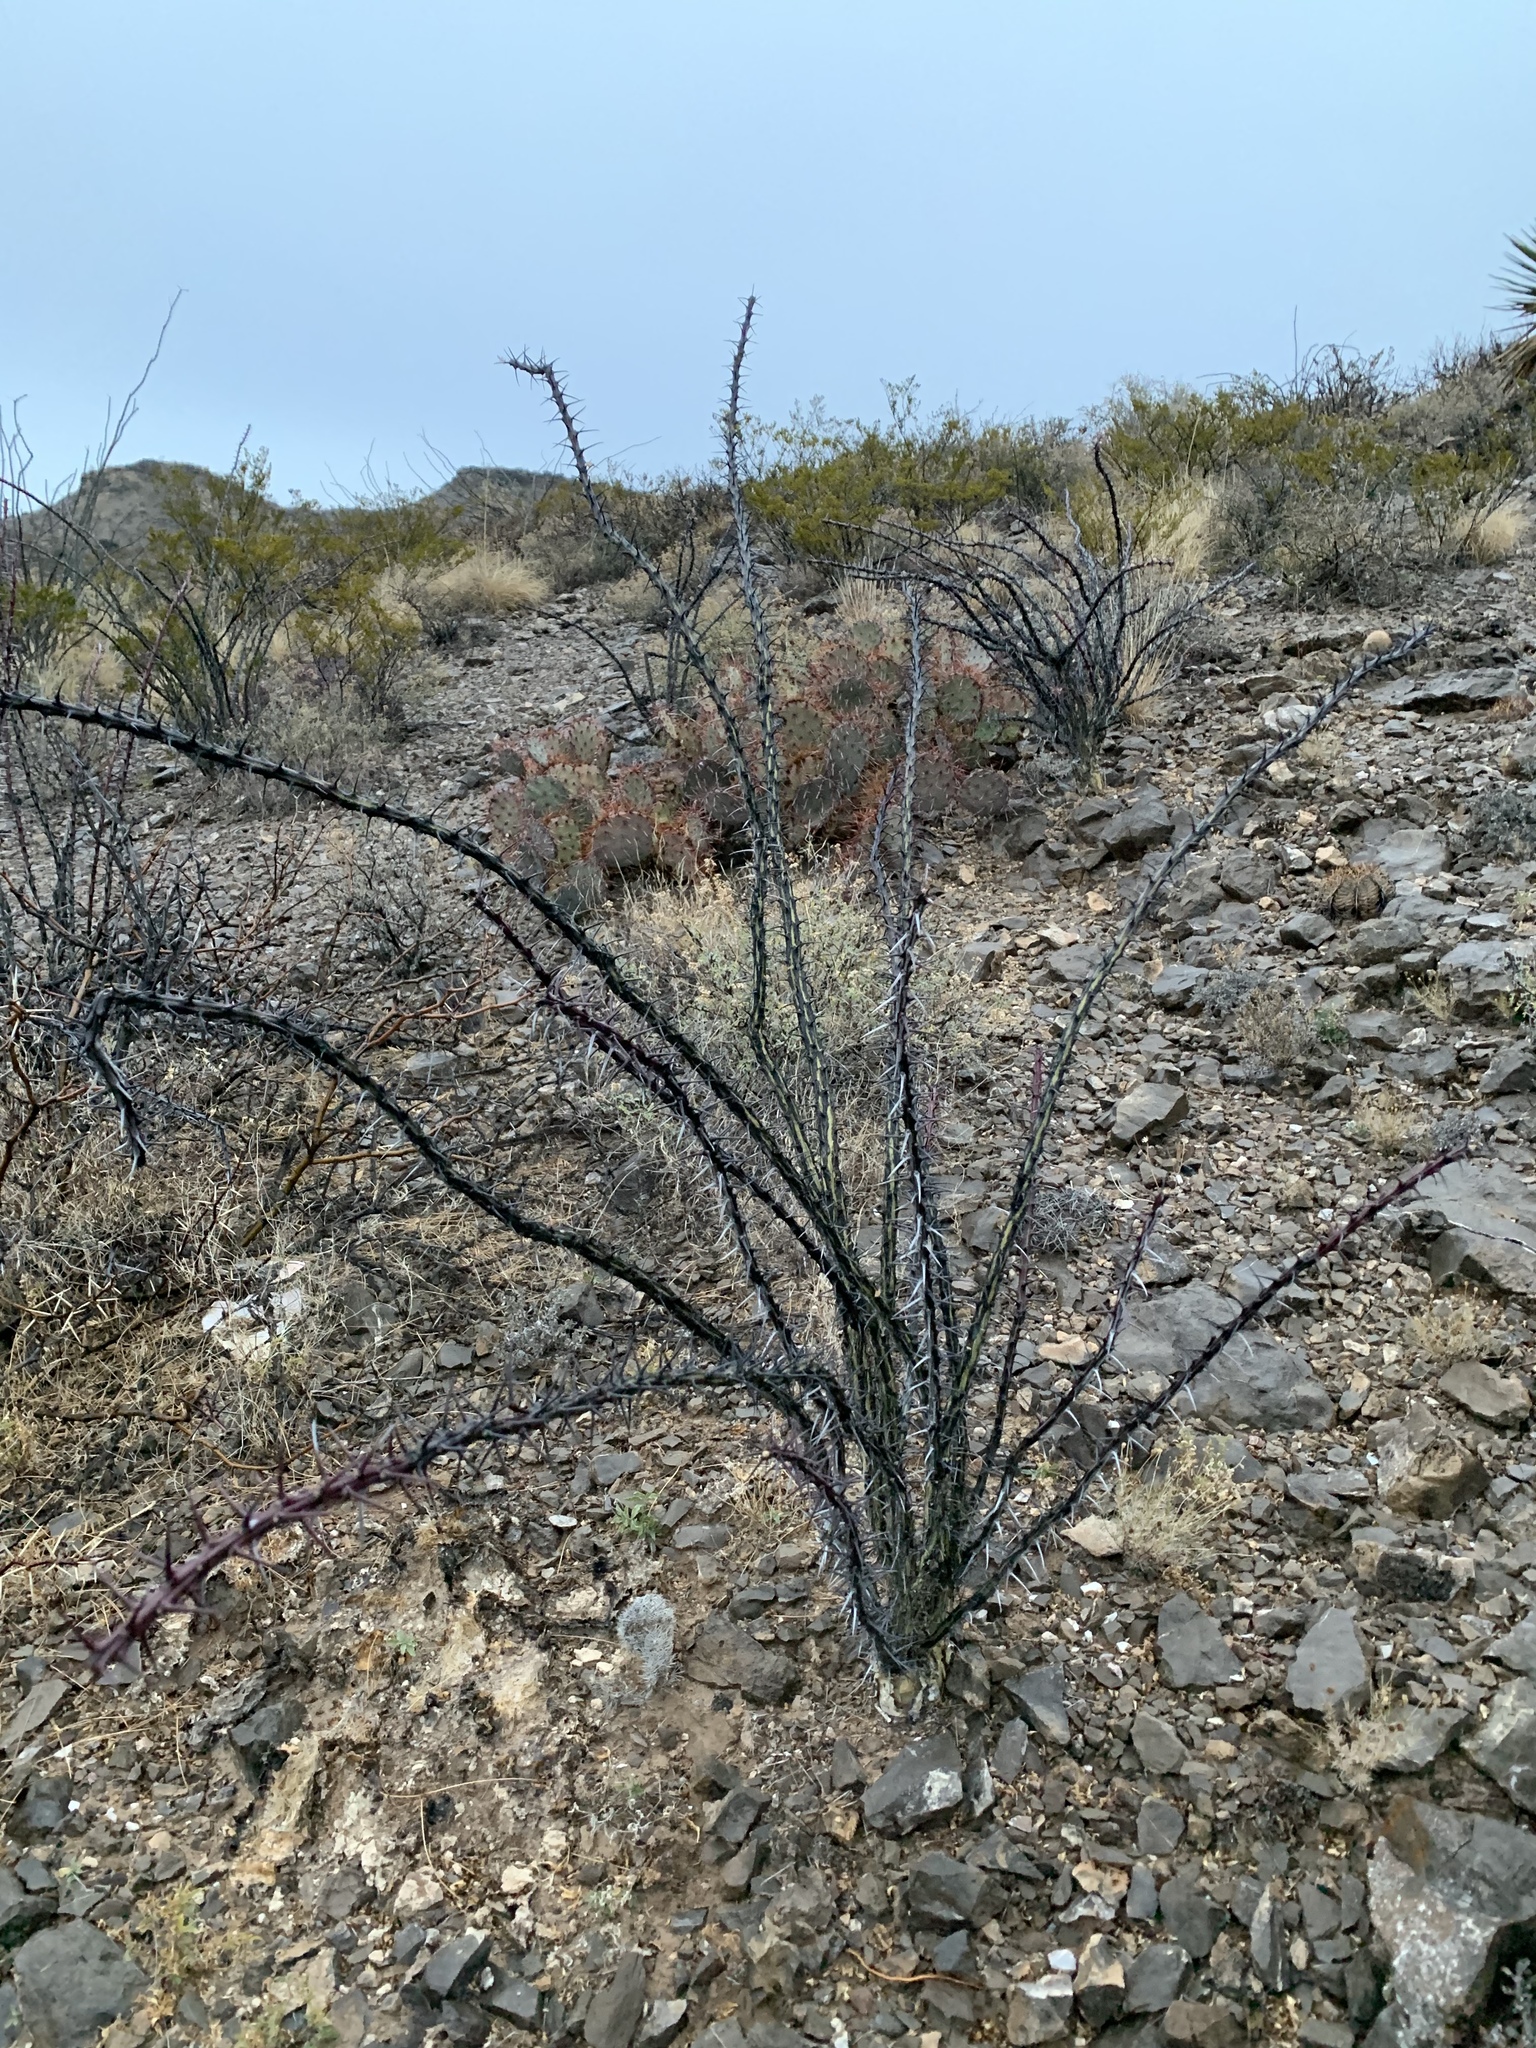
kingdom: Plantae
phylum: Tracheophyta
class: Magnoliopsida
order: Ericales
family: Fouquieriaceae
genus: Fouquieria
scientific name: Fouquieria splendens
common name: Vine-cactus
